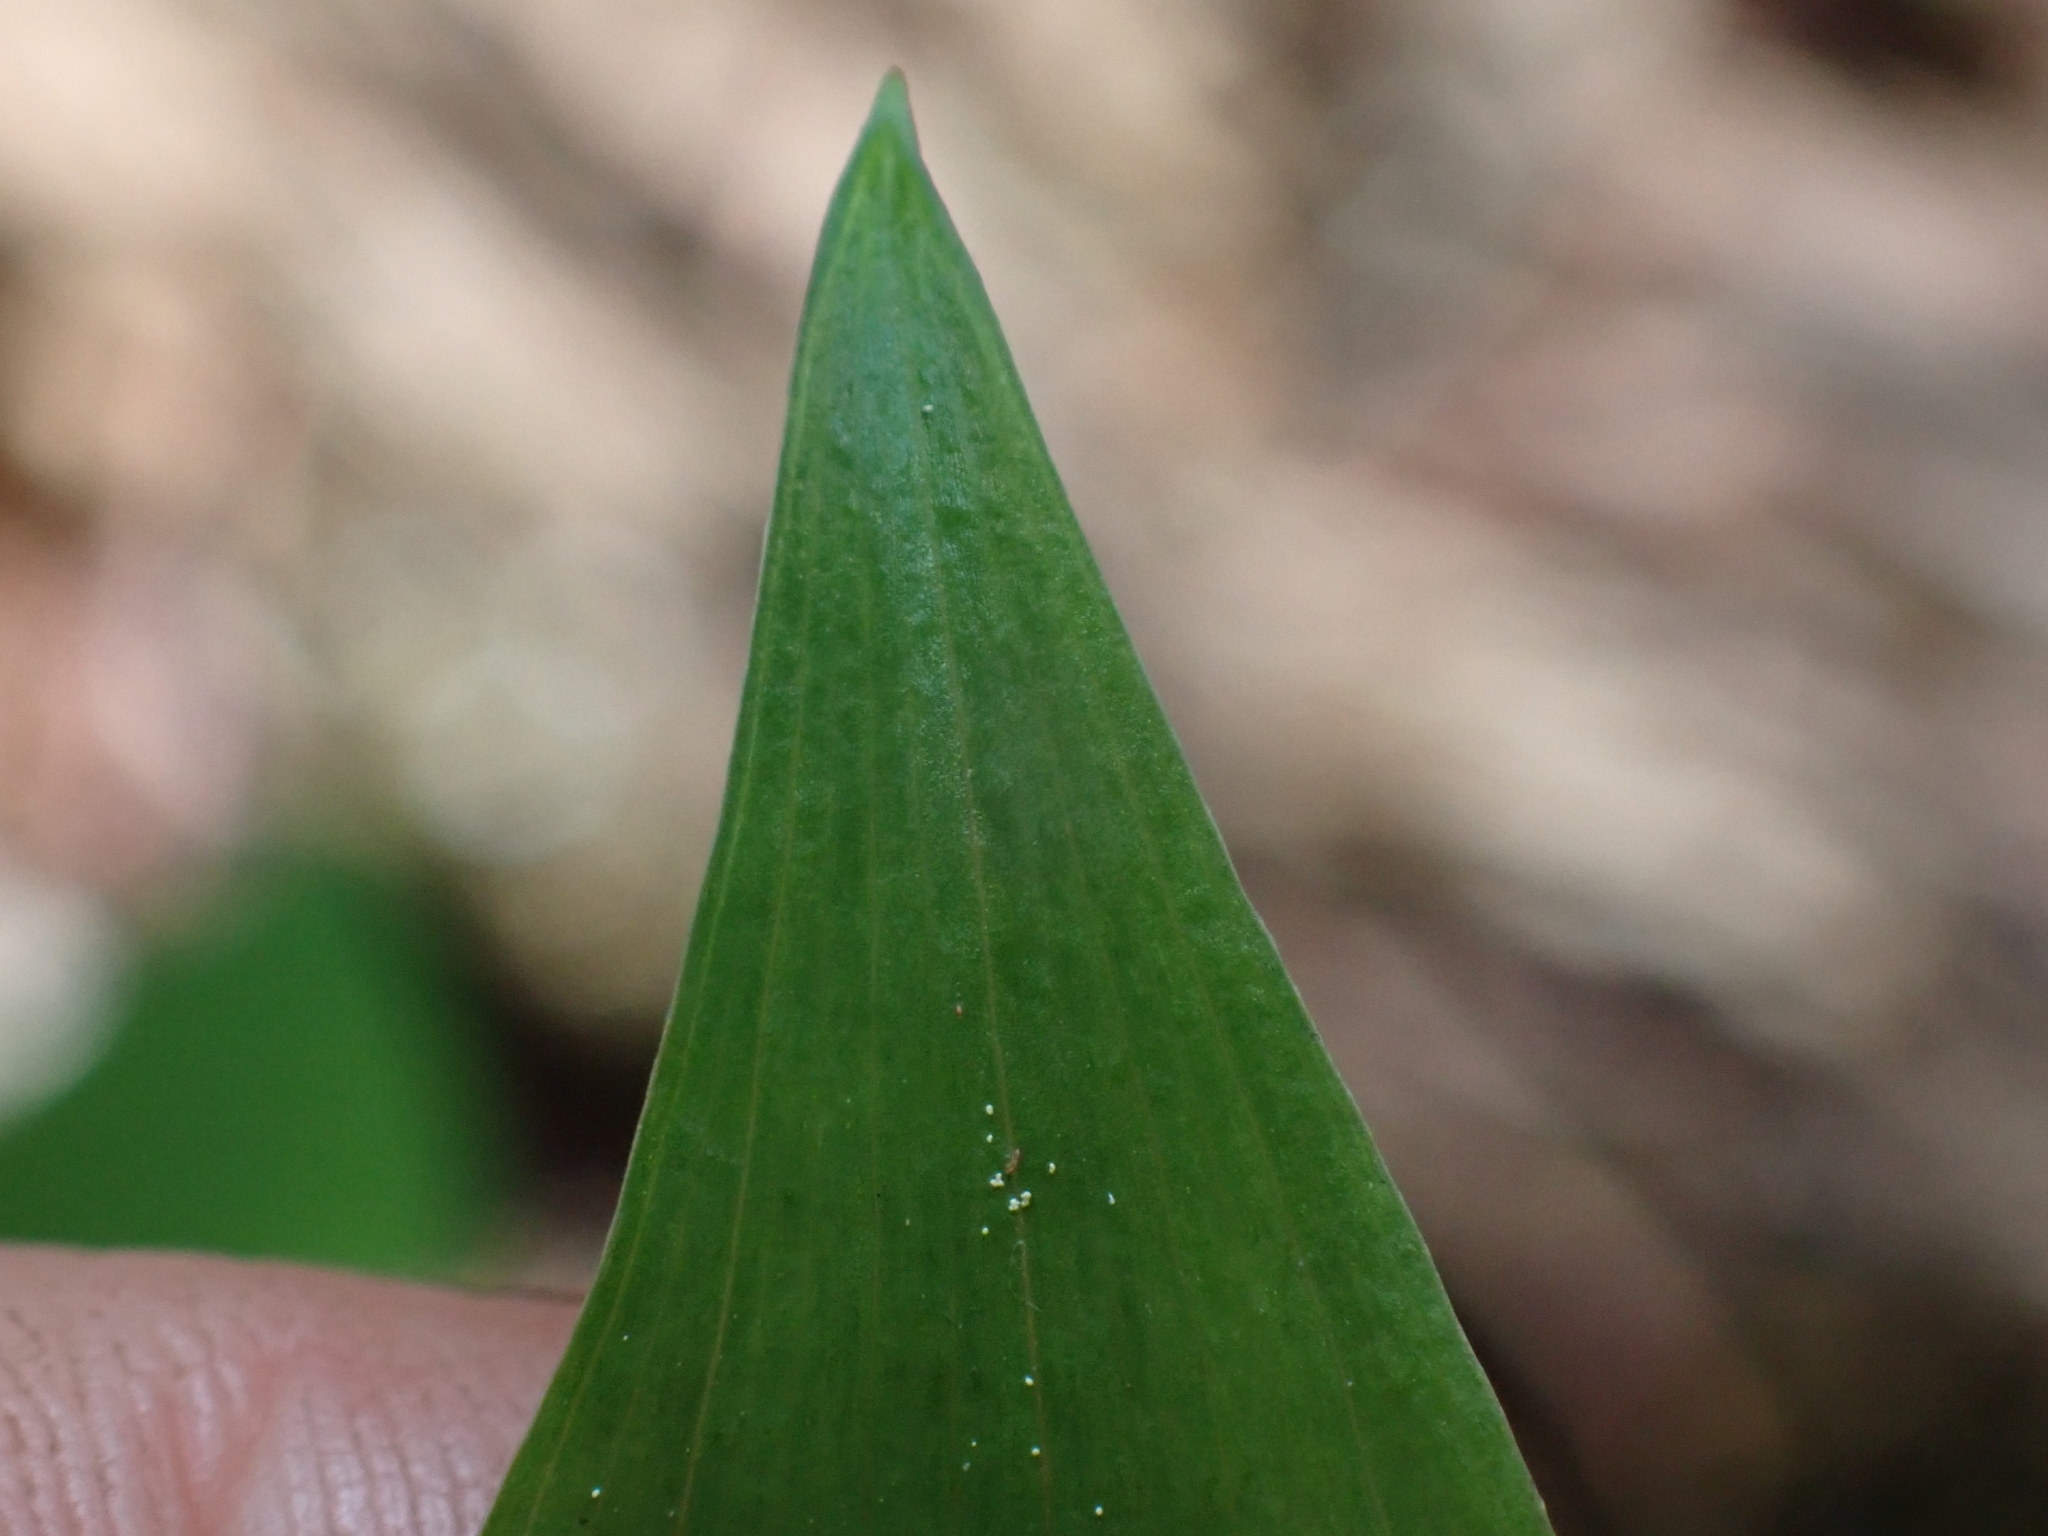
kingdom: Plantae
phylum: Tracheophyta
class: Liliopsida
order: Liliales
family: Liliaceae
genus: Streptopus
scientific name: Streptopus amplexifolius
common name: Clasp twisted stalk
